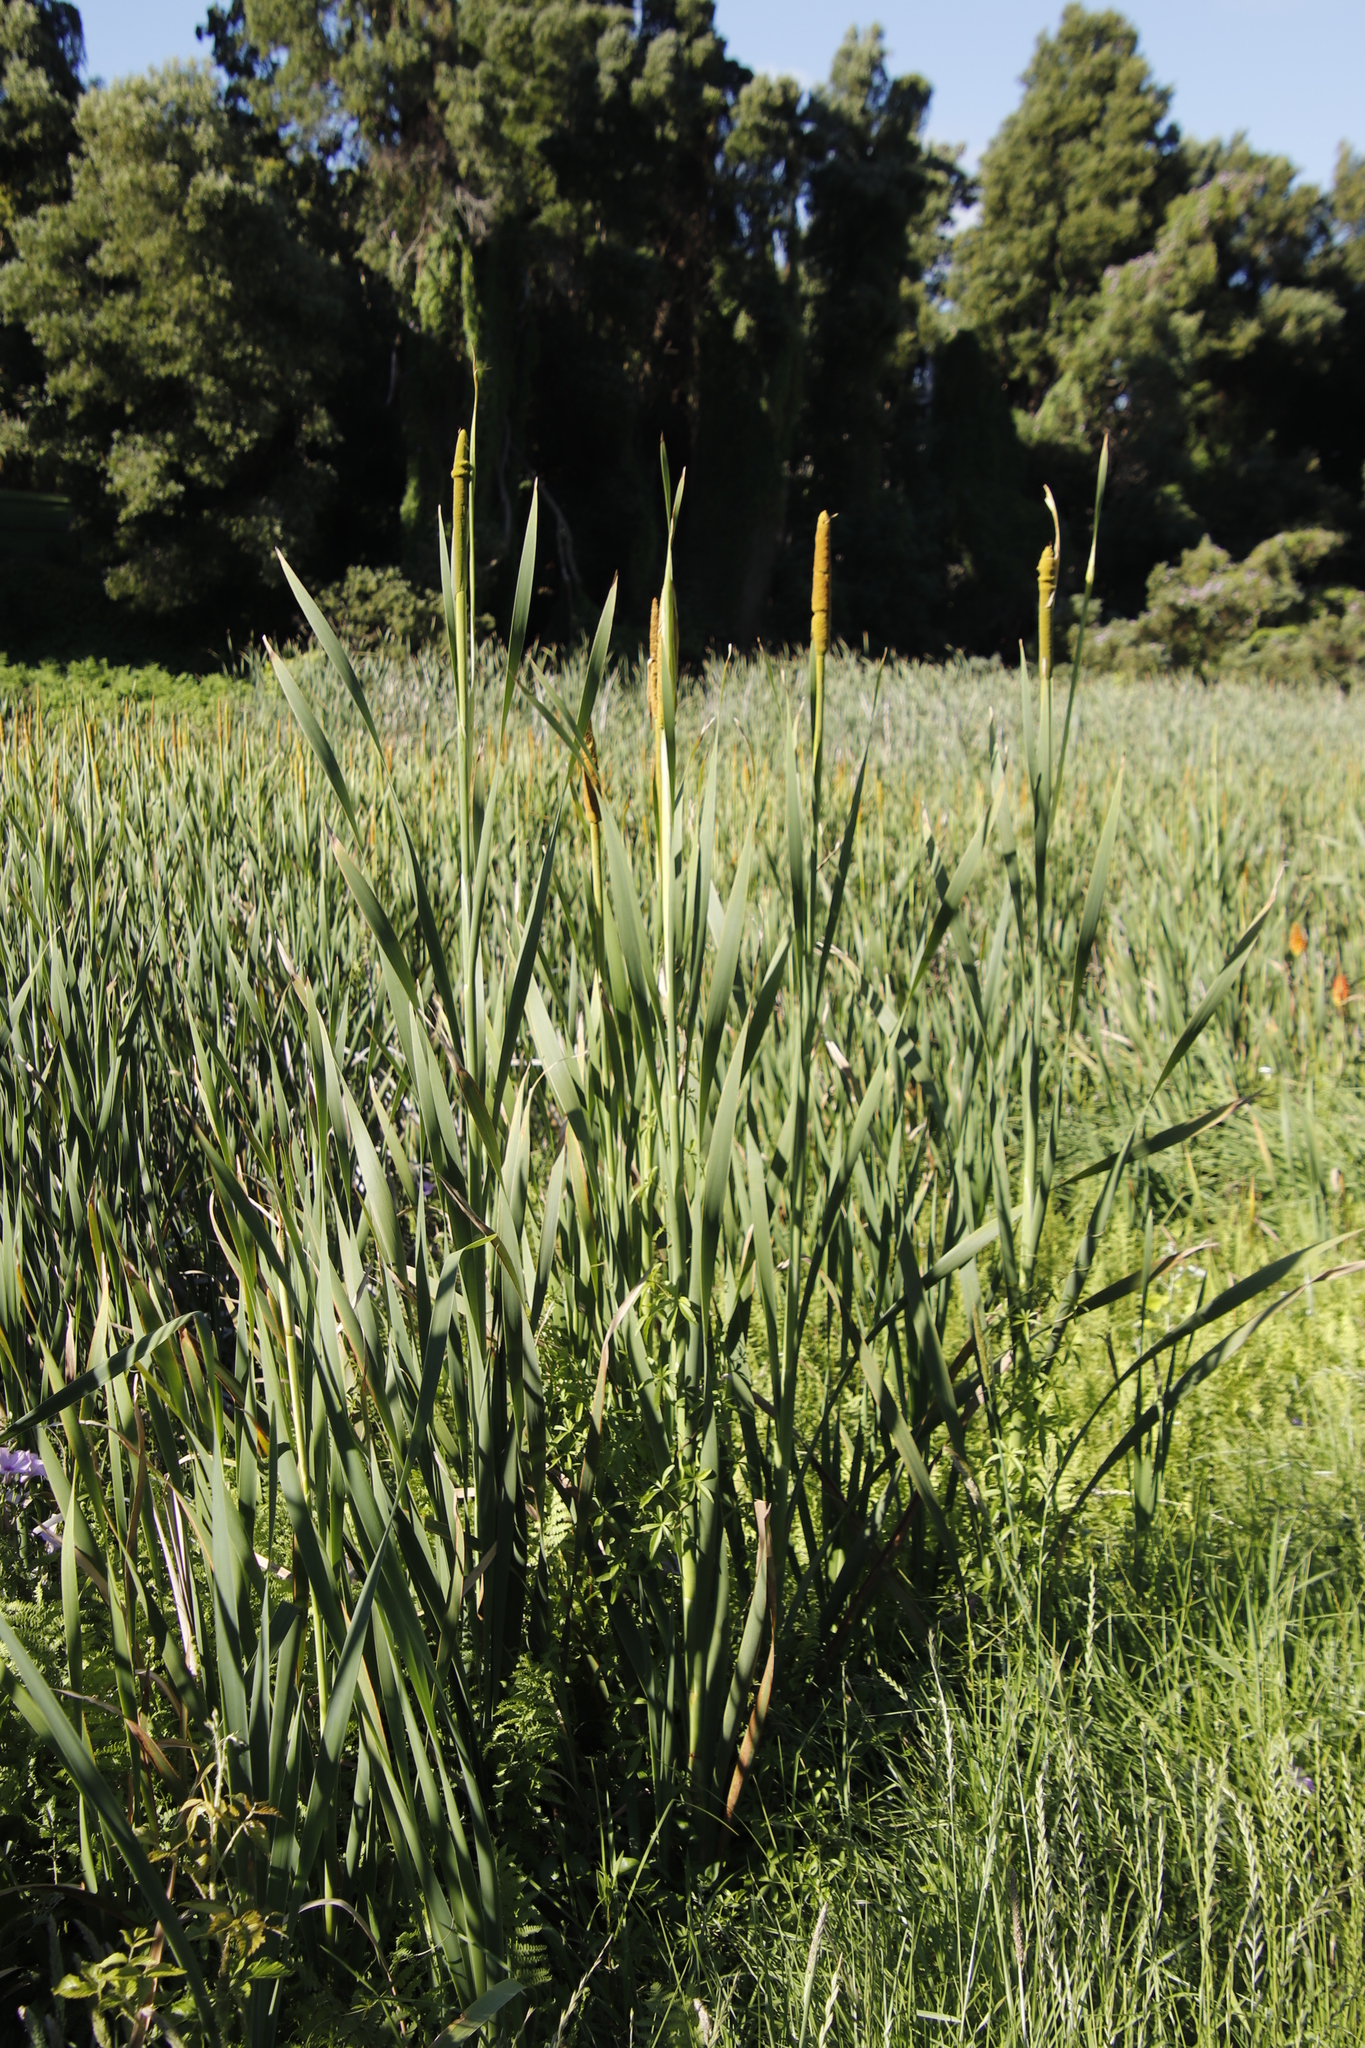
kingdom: Plantae
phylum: Tracheophyta
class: Liliopsida
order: Poales
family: Typhaceae
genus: Typha
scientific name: Typha capensis
